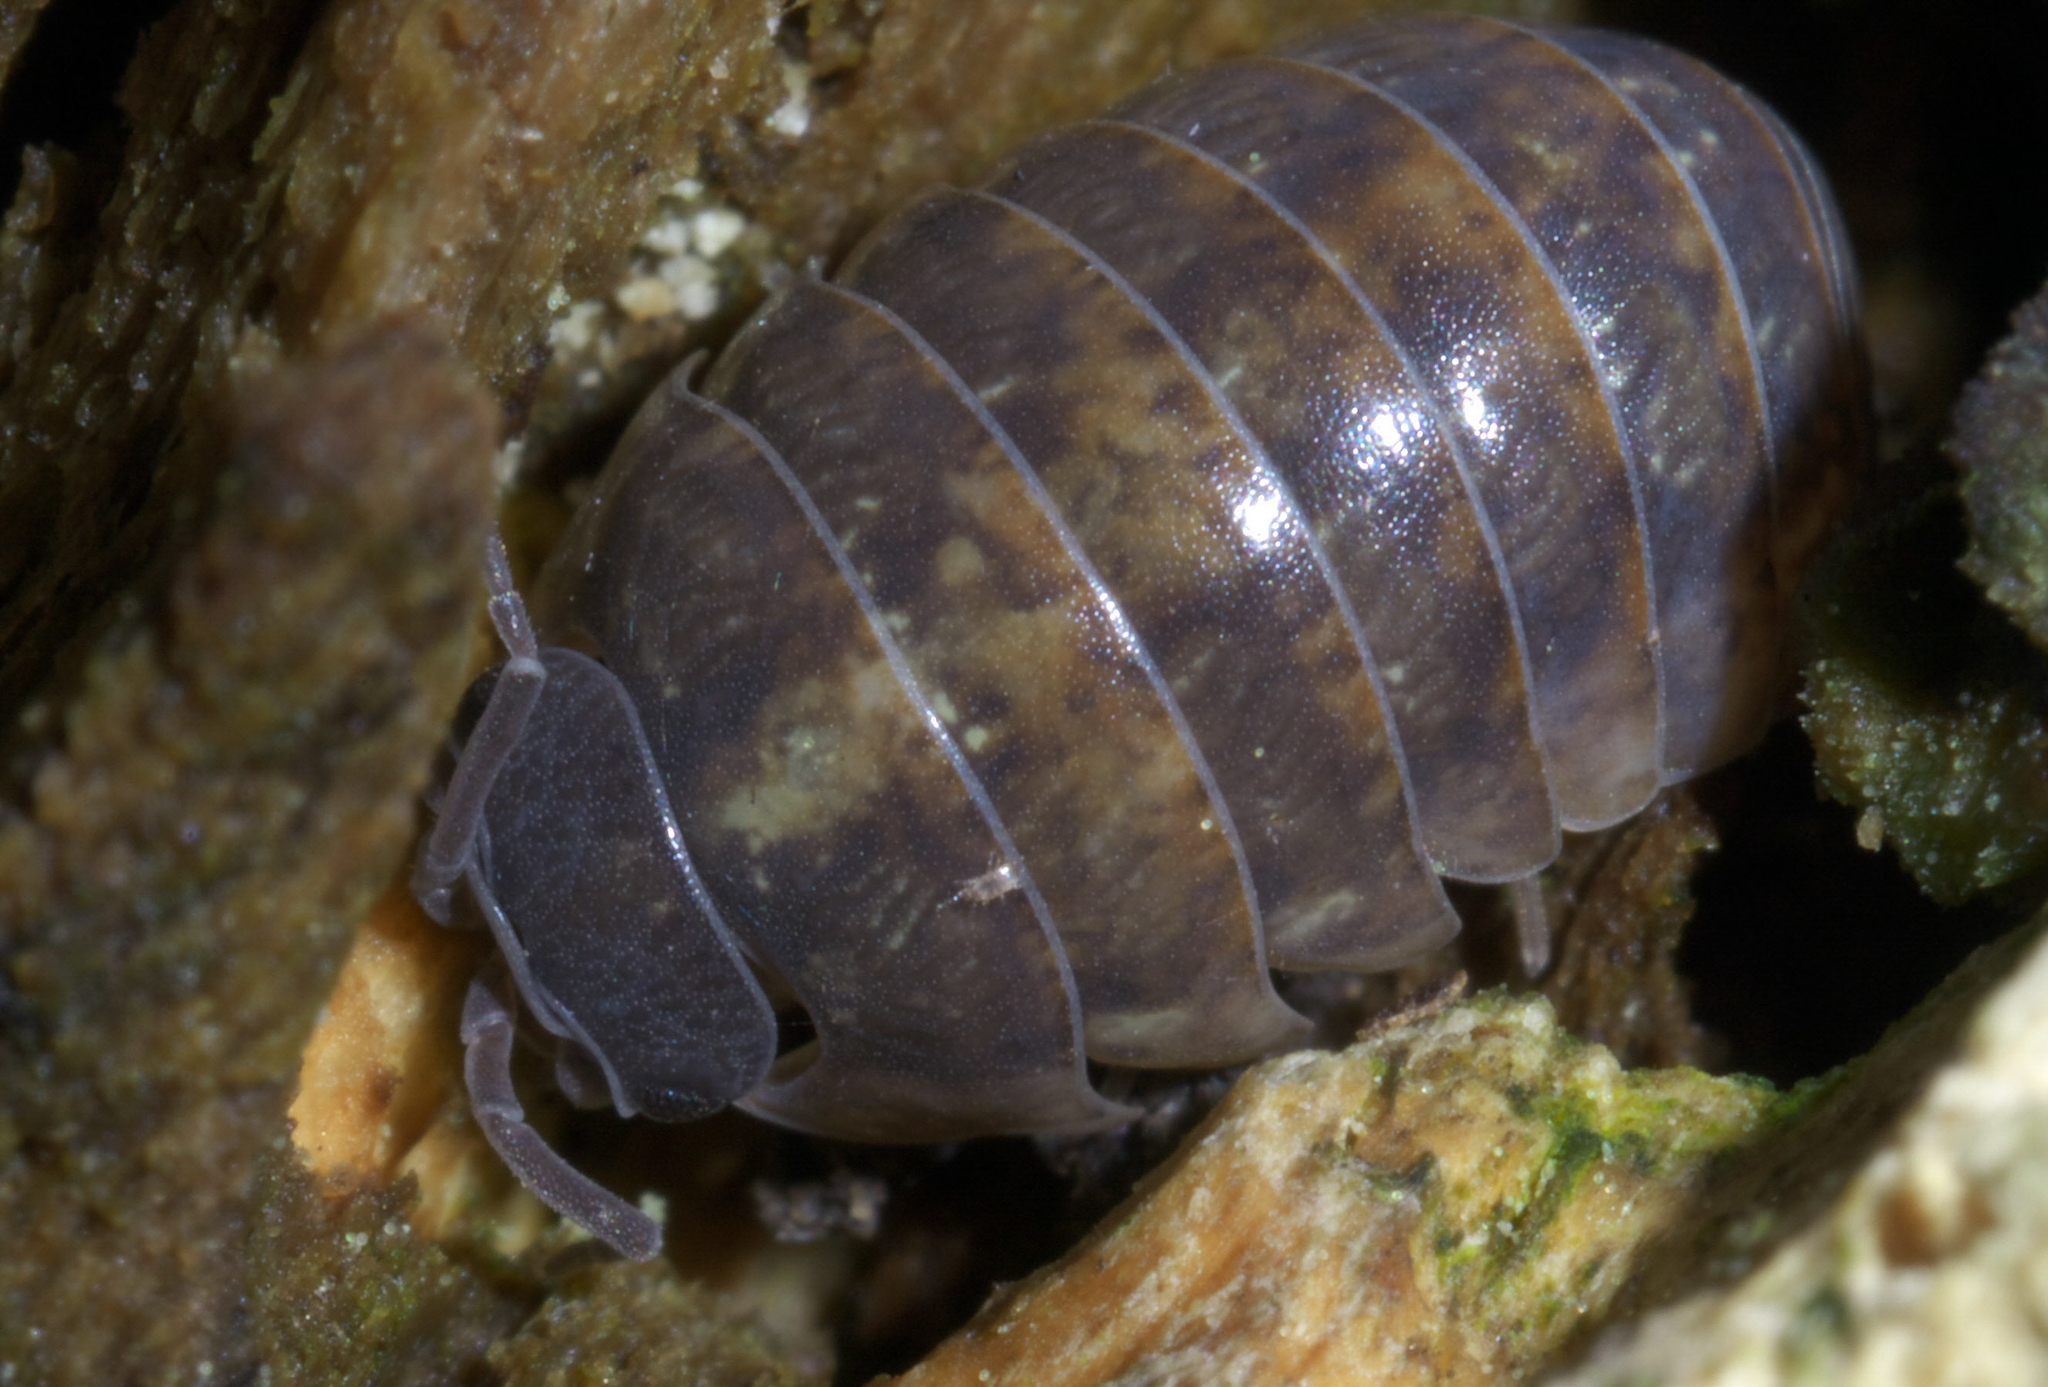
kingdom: Animalia
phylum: Arthropoda
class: Malacostraca
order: Isopoda
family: Armadillidiidae
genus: Armadillidium
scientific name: Armadillidium vulgare
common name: Common pill woodlouse
